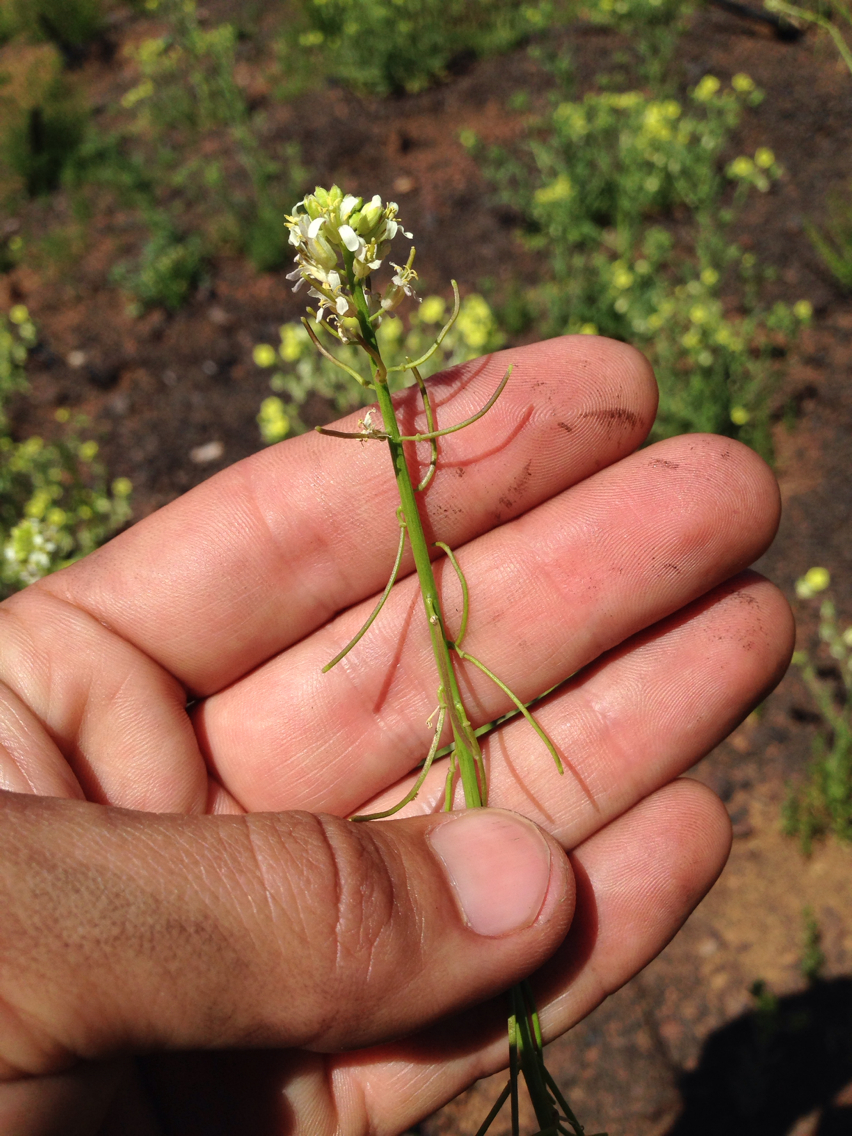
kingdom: Plantae
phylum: Tracheophyta
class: Magnoliopsida
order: Brassicales
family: Brassicaceae
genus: Streptanthus
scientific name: Streptanthus lasiophyllus
